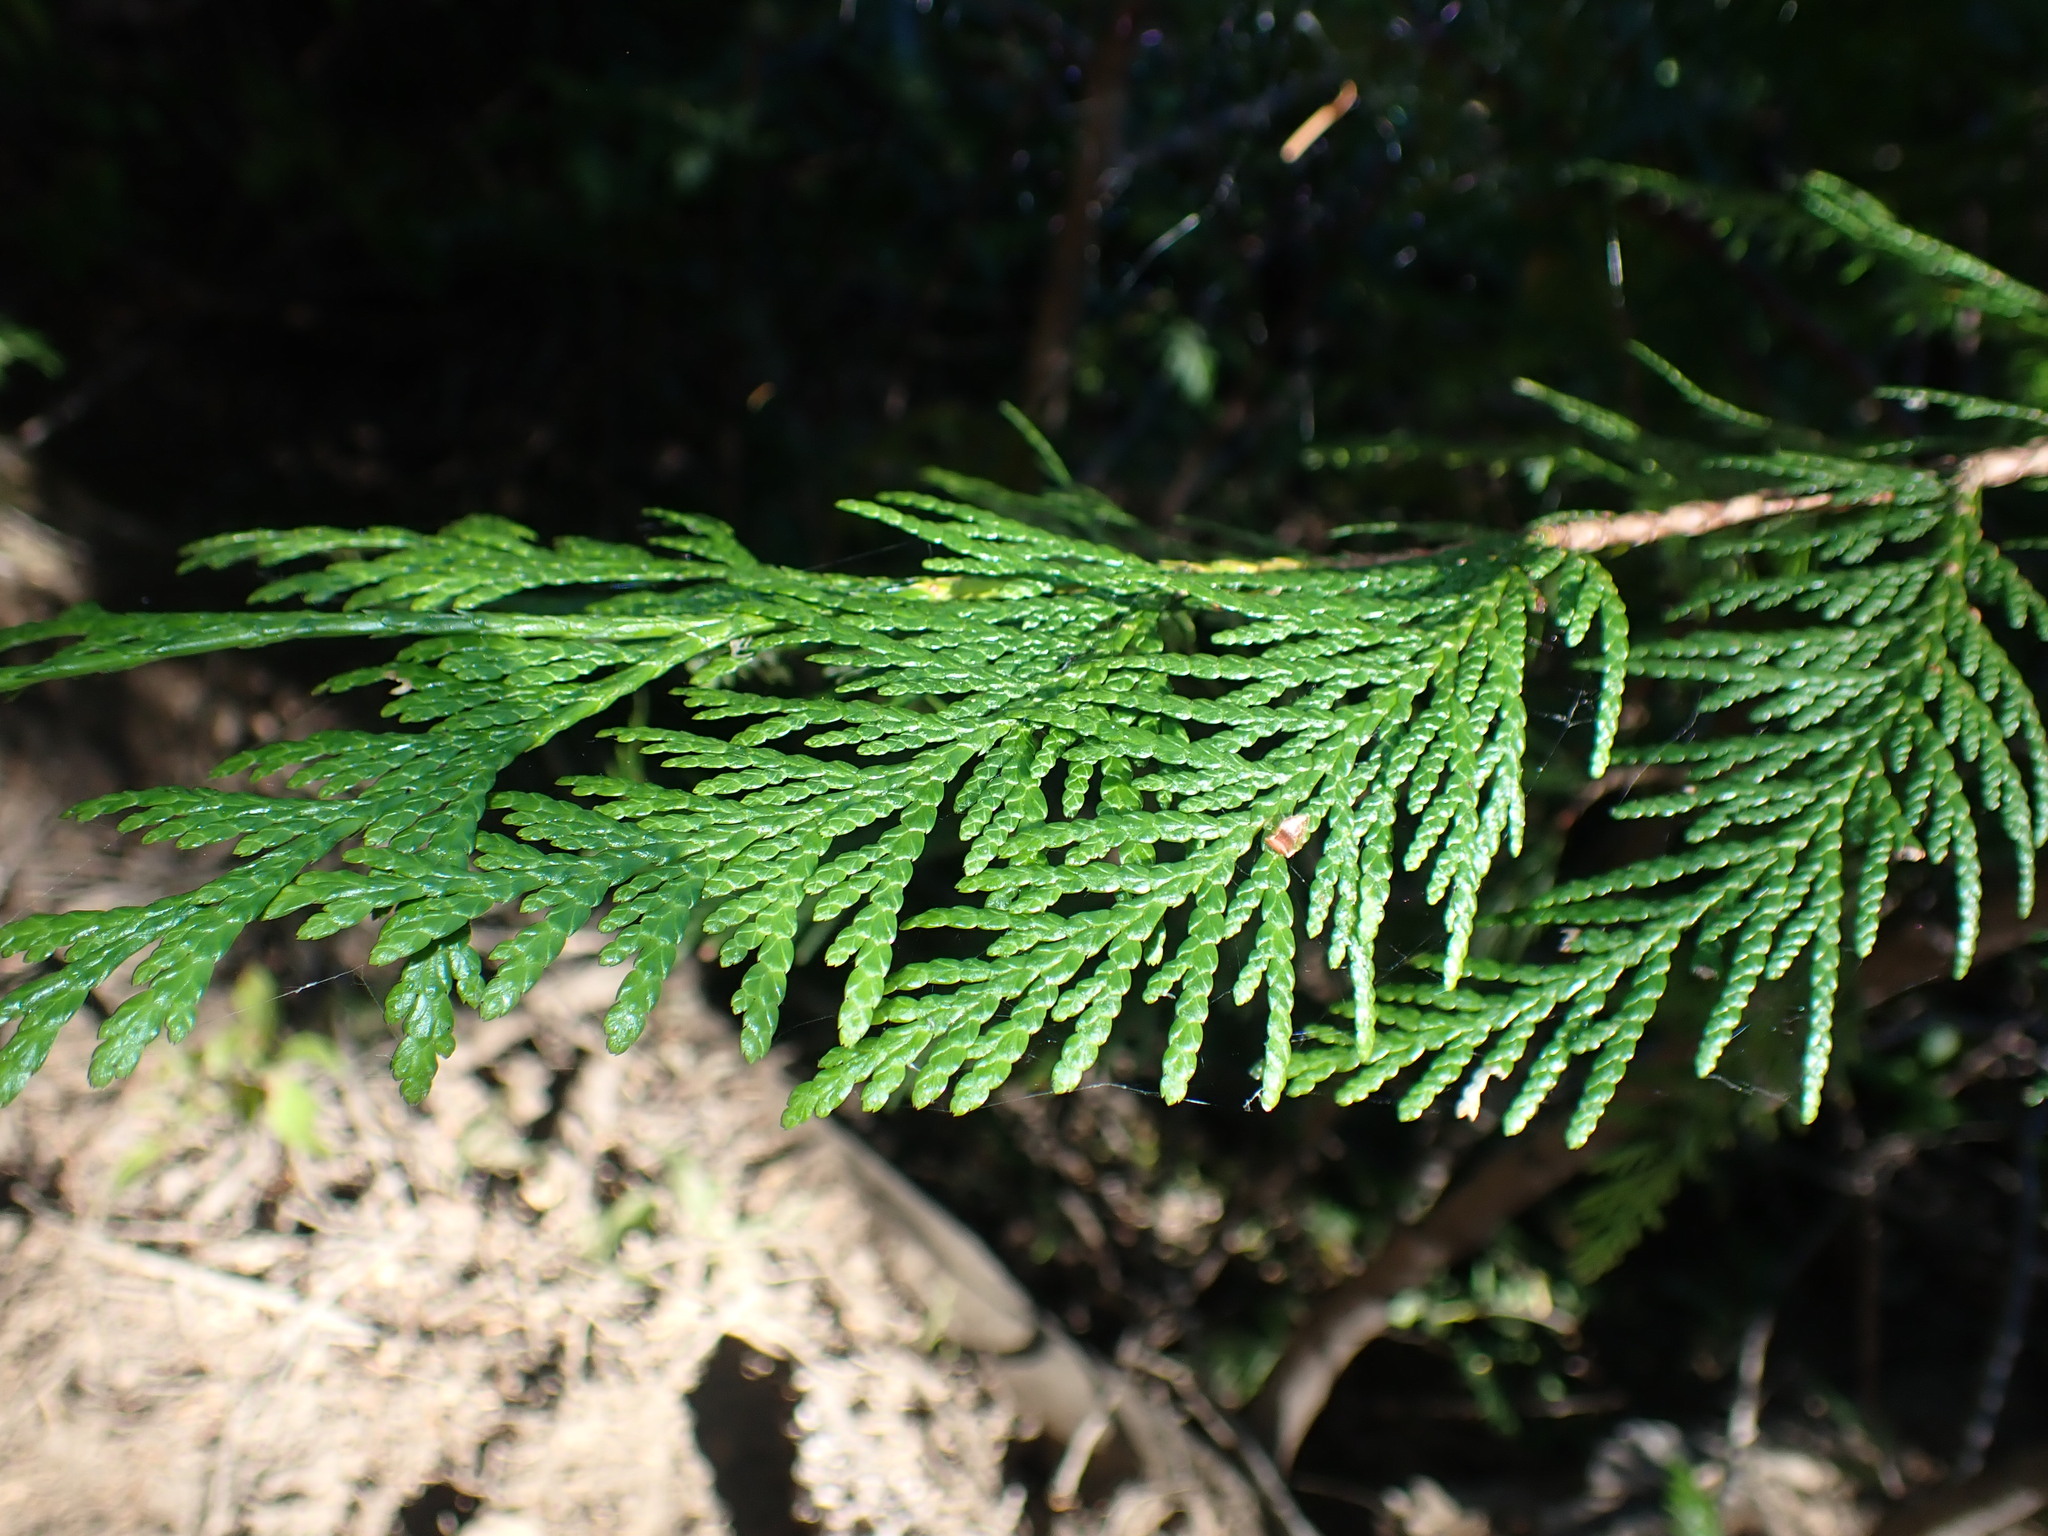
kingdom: Plantae
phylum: Tracheophyta
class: Pinopsida
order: Pinales
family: Cupressaceae
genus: Thuja
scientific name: Thuja plicata
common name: Western red-cedar
